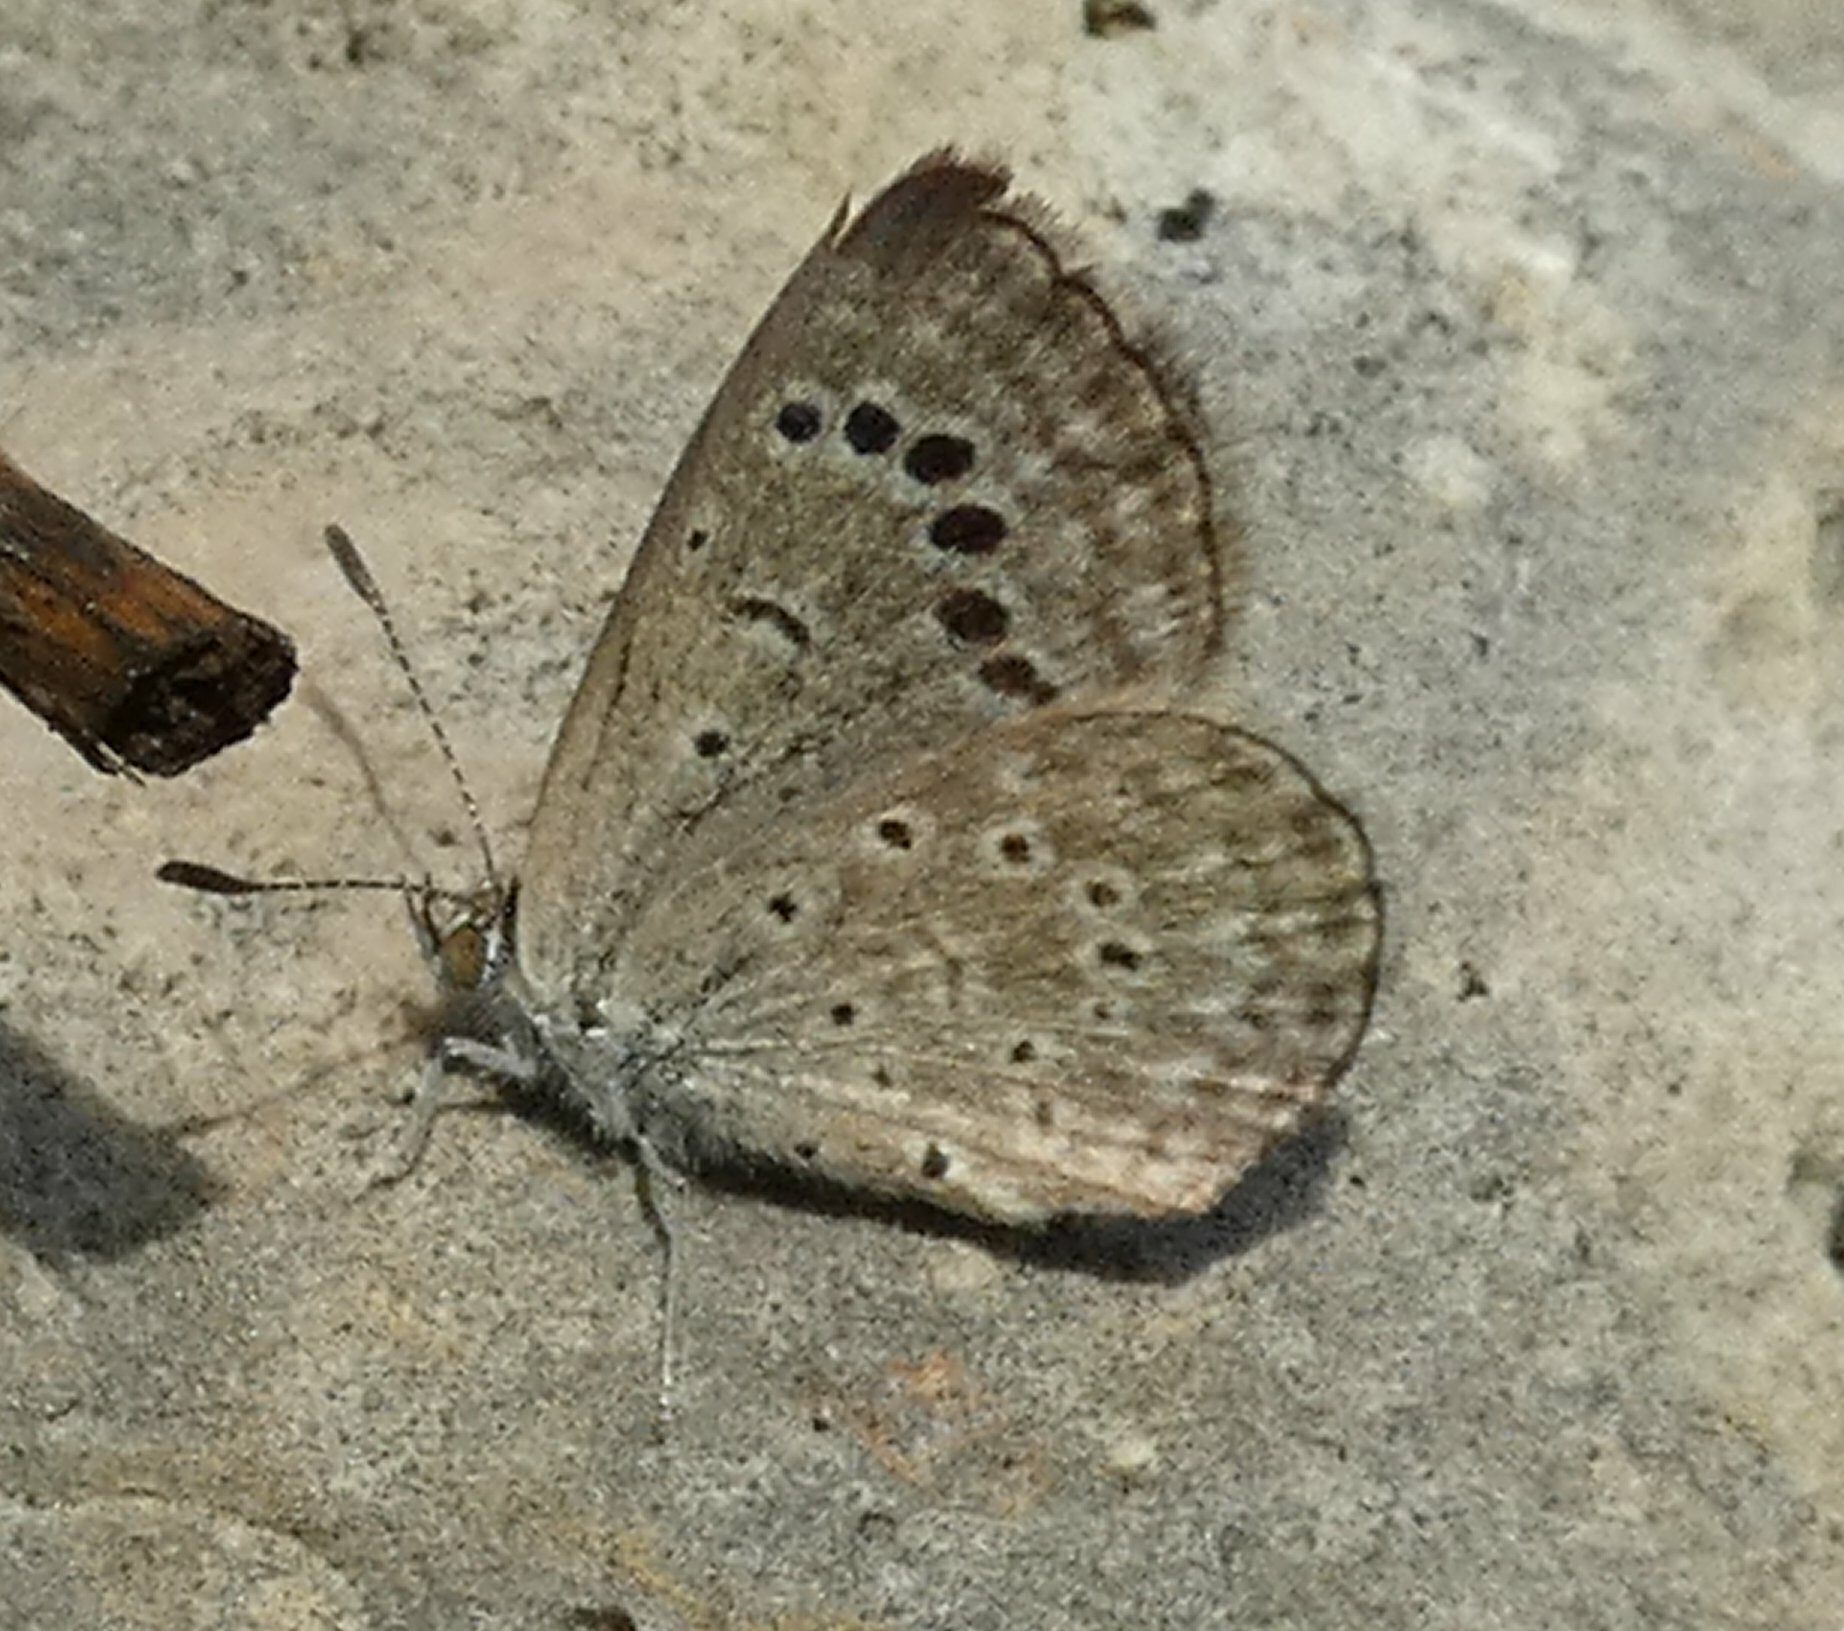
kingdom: Animalia
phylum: Arthropoda
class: Insecta
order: Lepidoptera
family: Lycaenidae
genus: Zizeeria
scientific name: Zizeeria karsandra
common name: Dark grass blue
